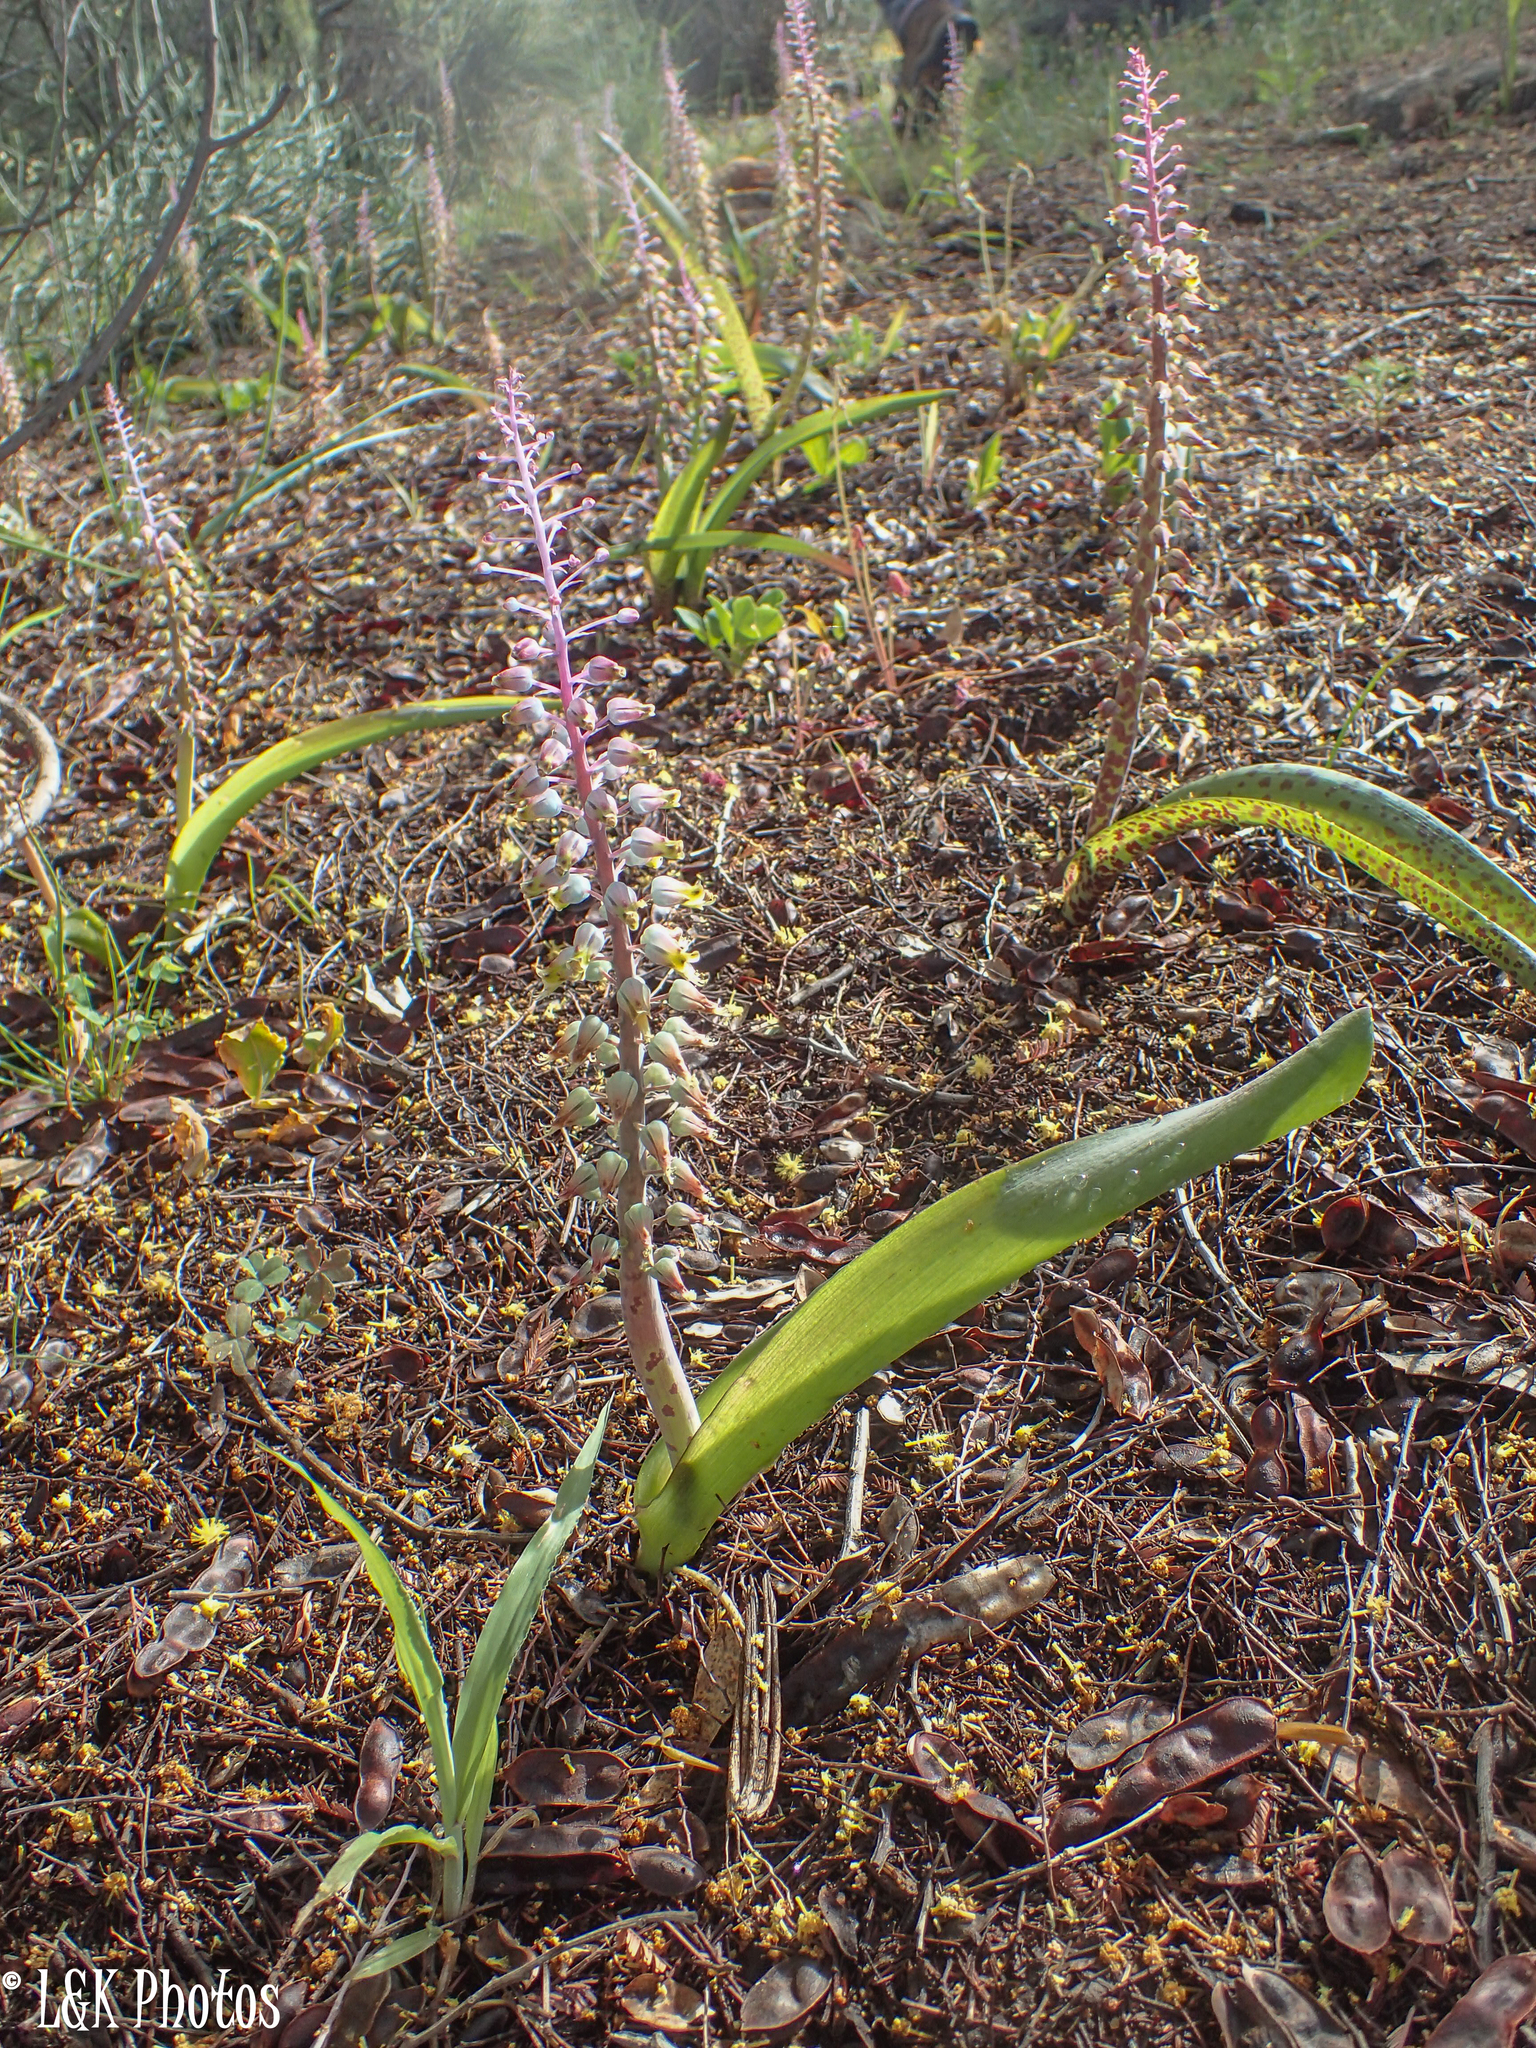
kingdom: Plantae
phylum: Tracheophyta
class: Liliopsida
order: Asparagales
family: Asparagaceae
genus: Lachenalia
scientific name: Lachenalia mutabilis
